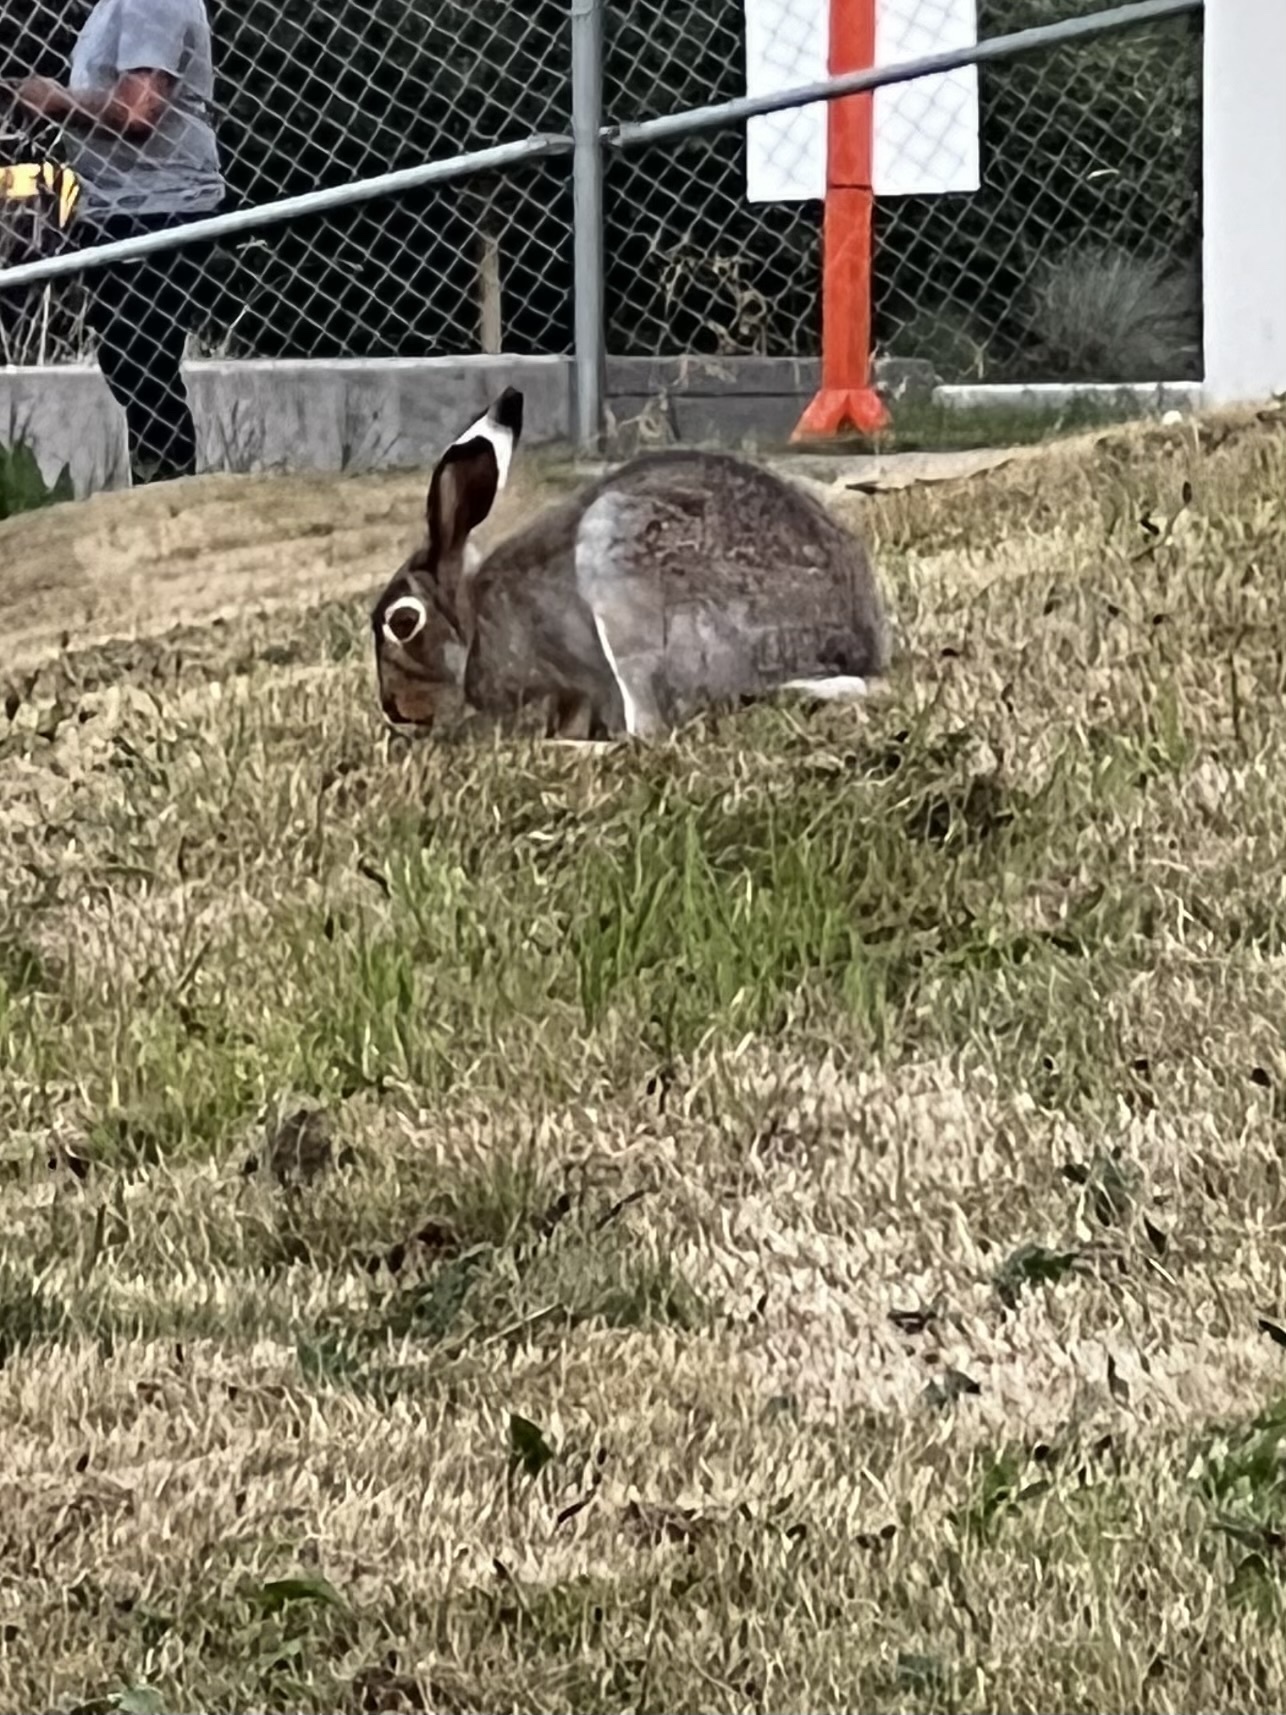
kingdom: Animalia
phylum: Chordata
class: Mammalia
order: Lagomorpha
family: Leporidae
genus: Lepus
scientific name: Lepus townsendii
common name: White-tailed jackrabbit
